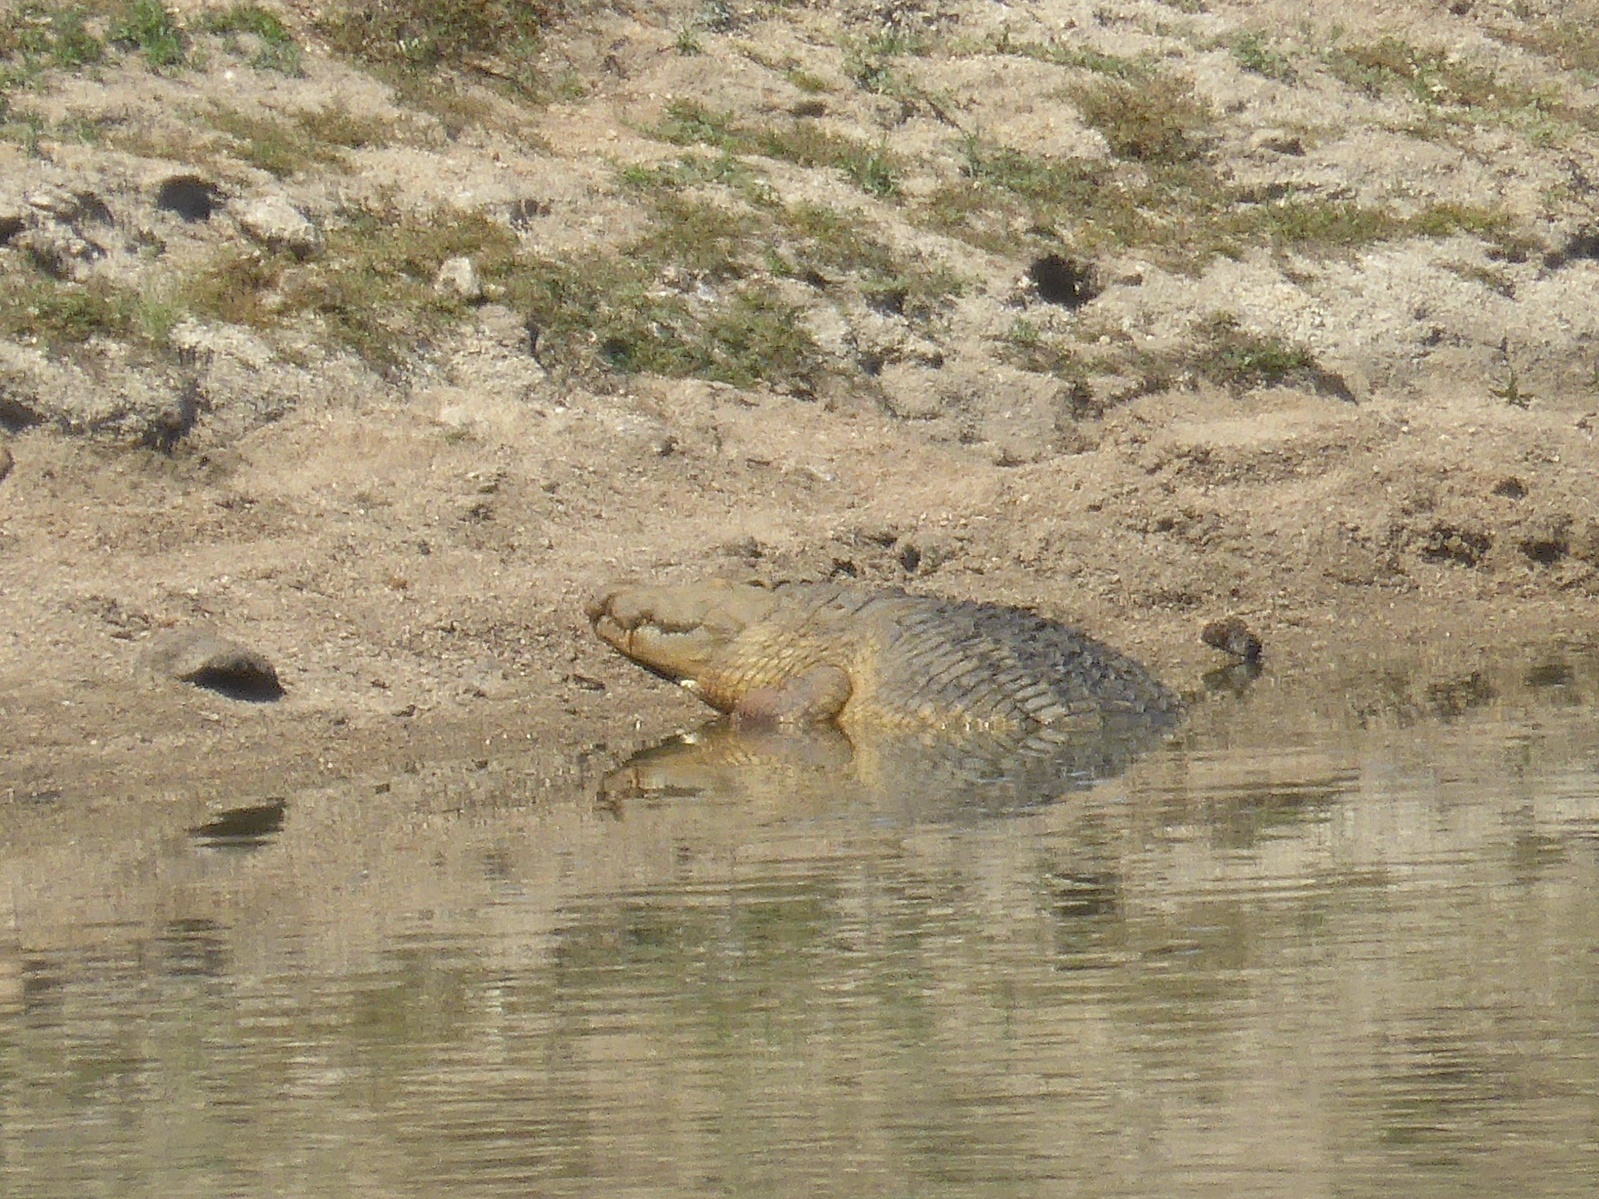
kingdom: Animalia
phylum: Chordata
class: Crocodylia
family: Crocodylidae
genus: Crocodylus
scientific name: Crocodylus niloticus
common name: Nile crocodile
